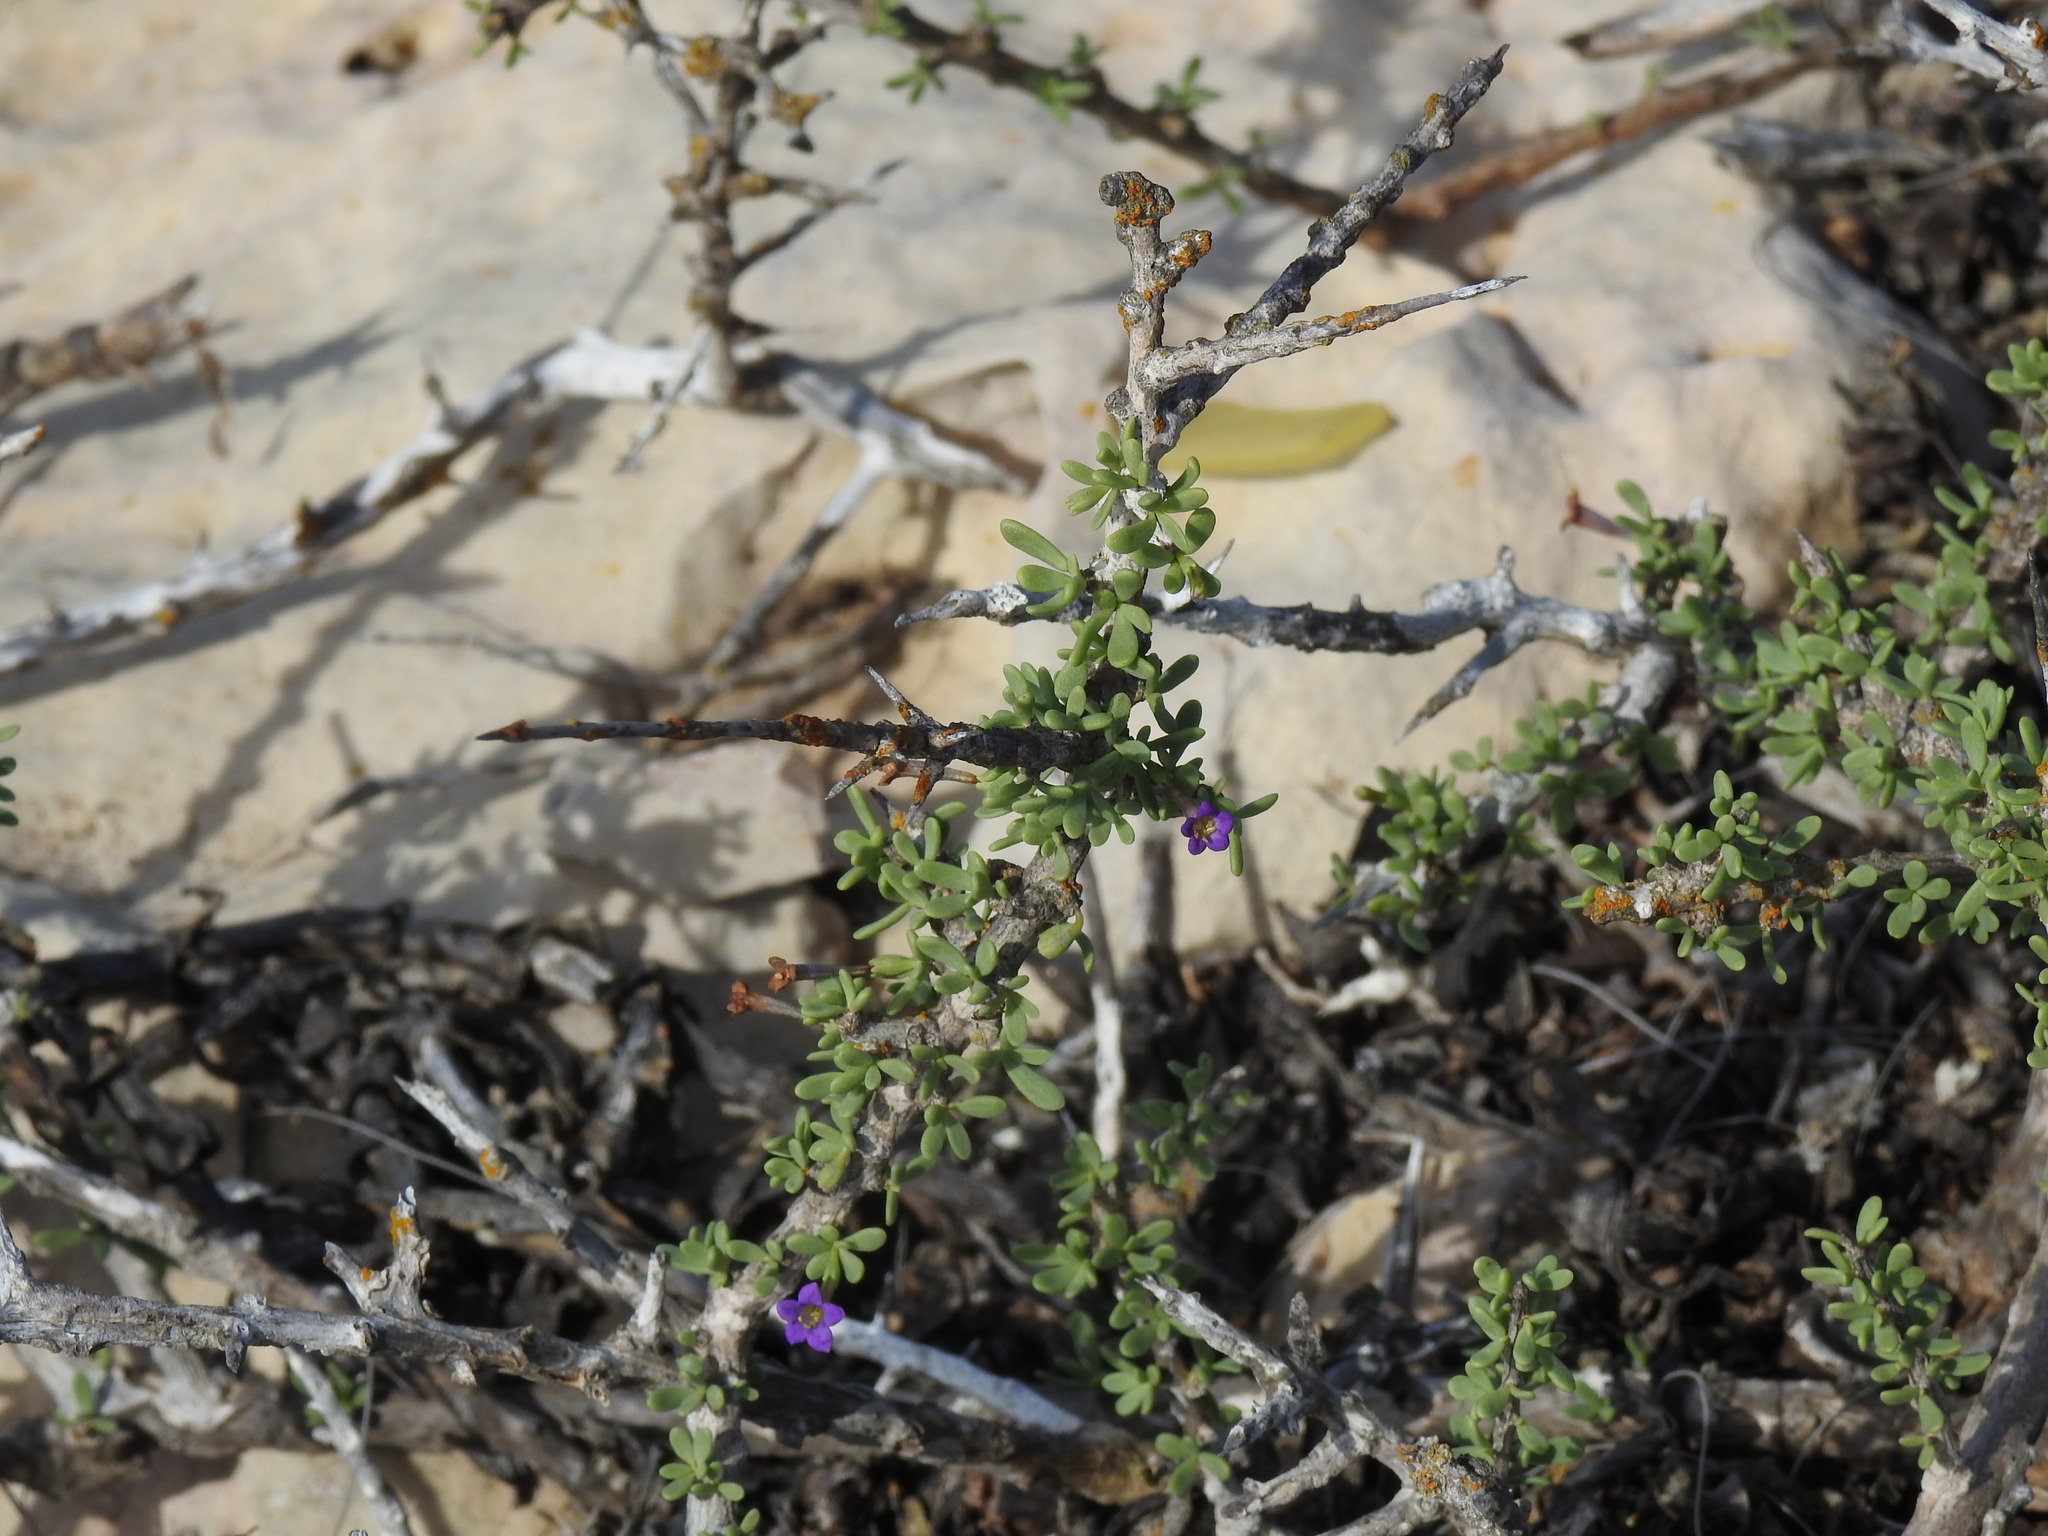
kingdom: Plantae
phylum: Tracheophyta
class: Magnoliopsida
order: Solanales
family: Solanaceae
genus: Lycium
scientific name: Lycium intricatum
